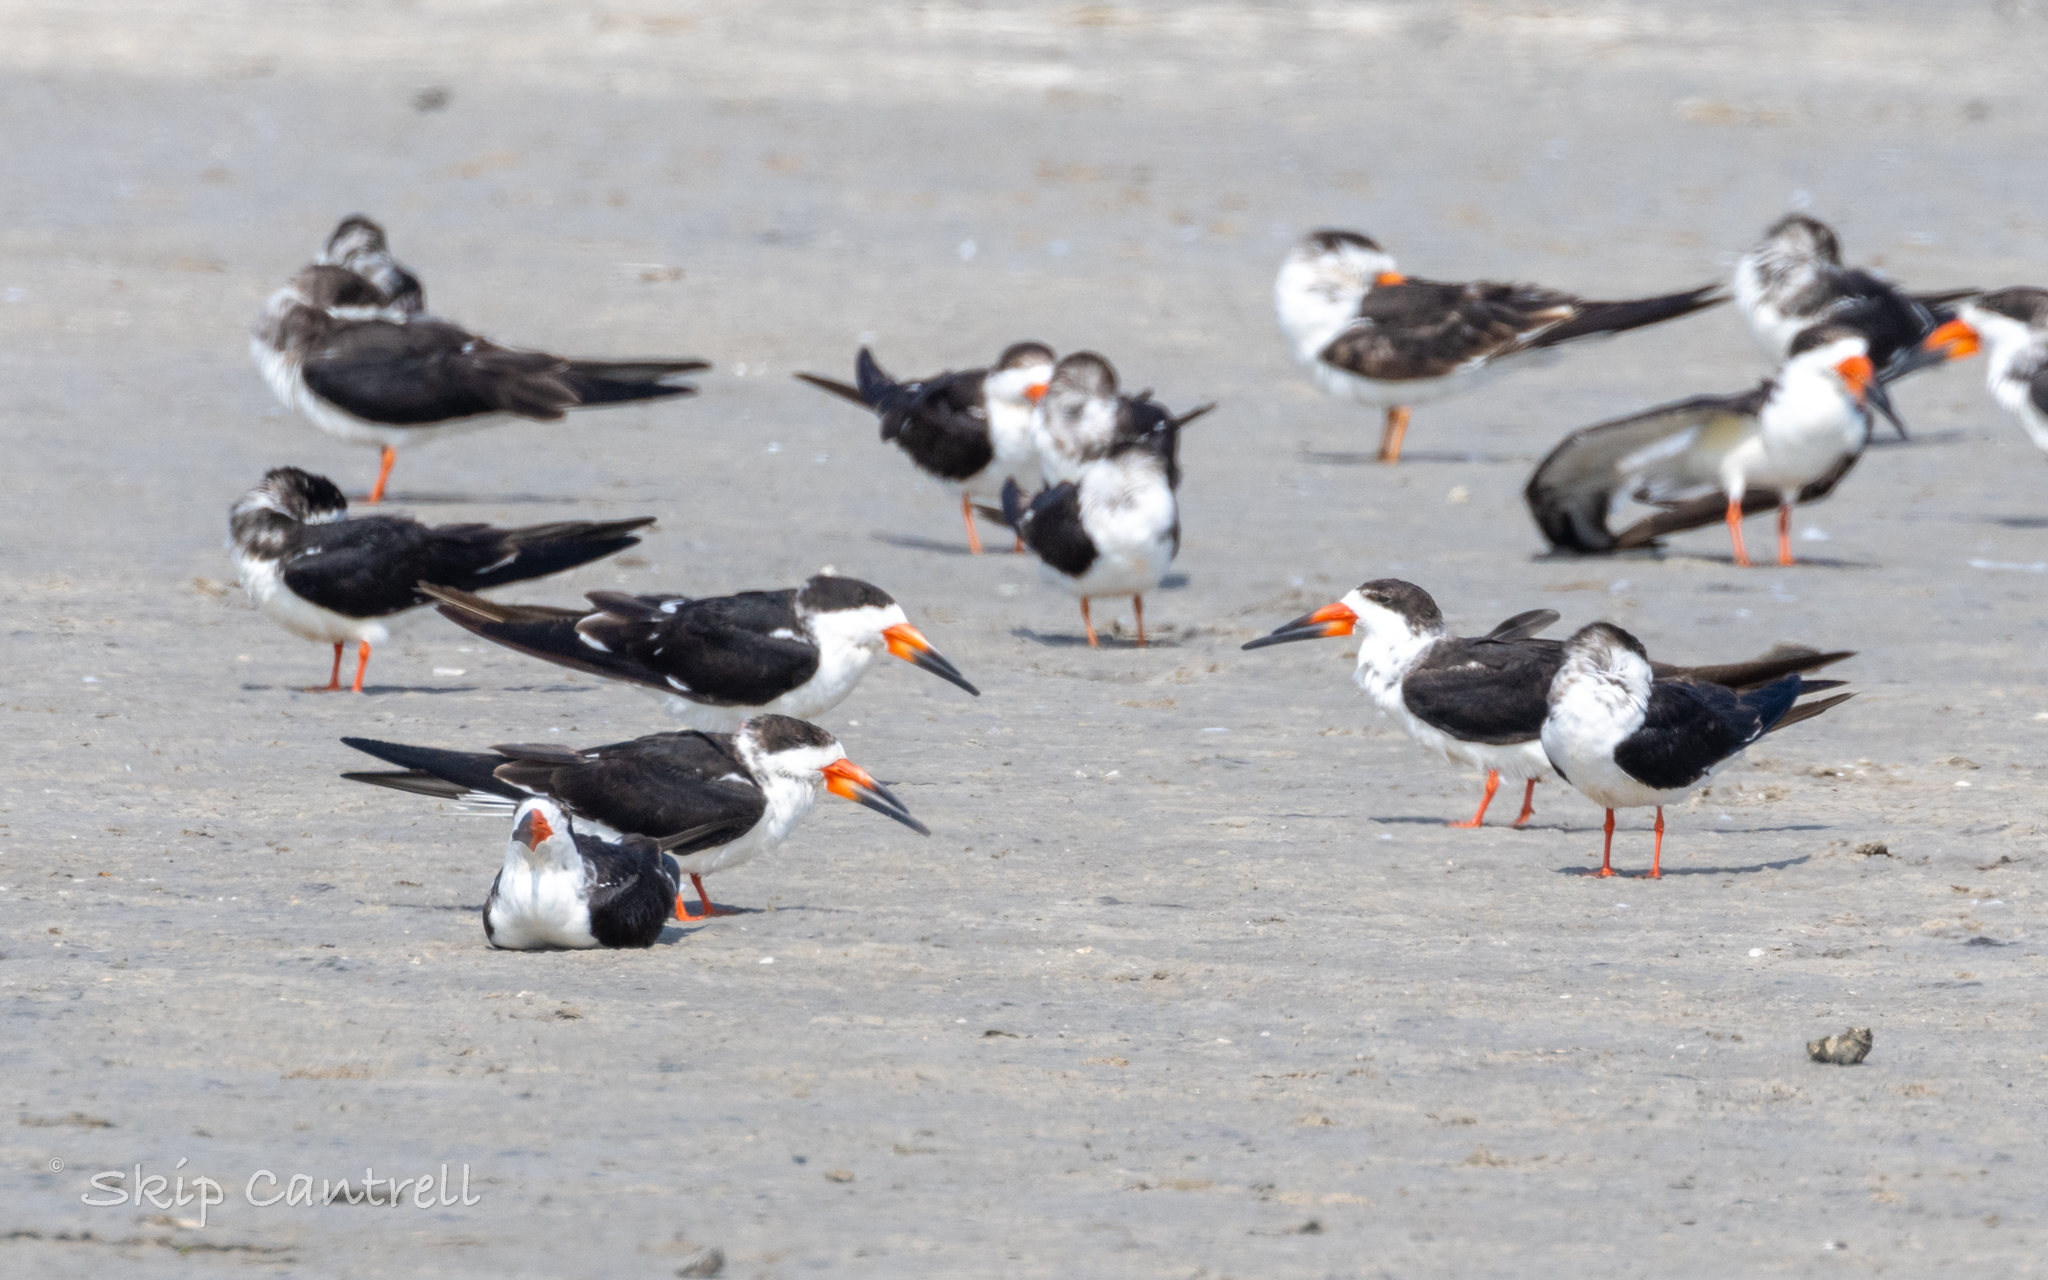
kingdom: Animalia
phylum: Chordata
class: Aves
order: Charadriiformes
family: Laridae
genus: Rynchops
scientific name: Rynchops niger
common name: Black skimmer
